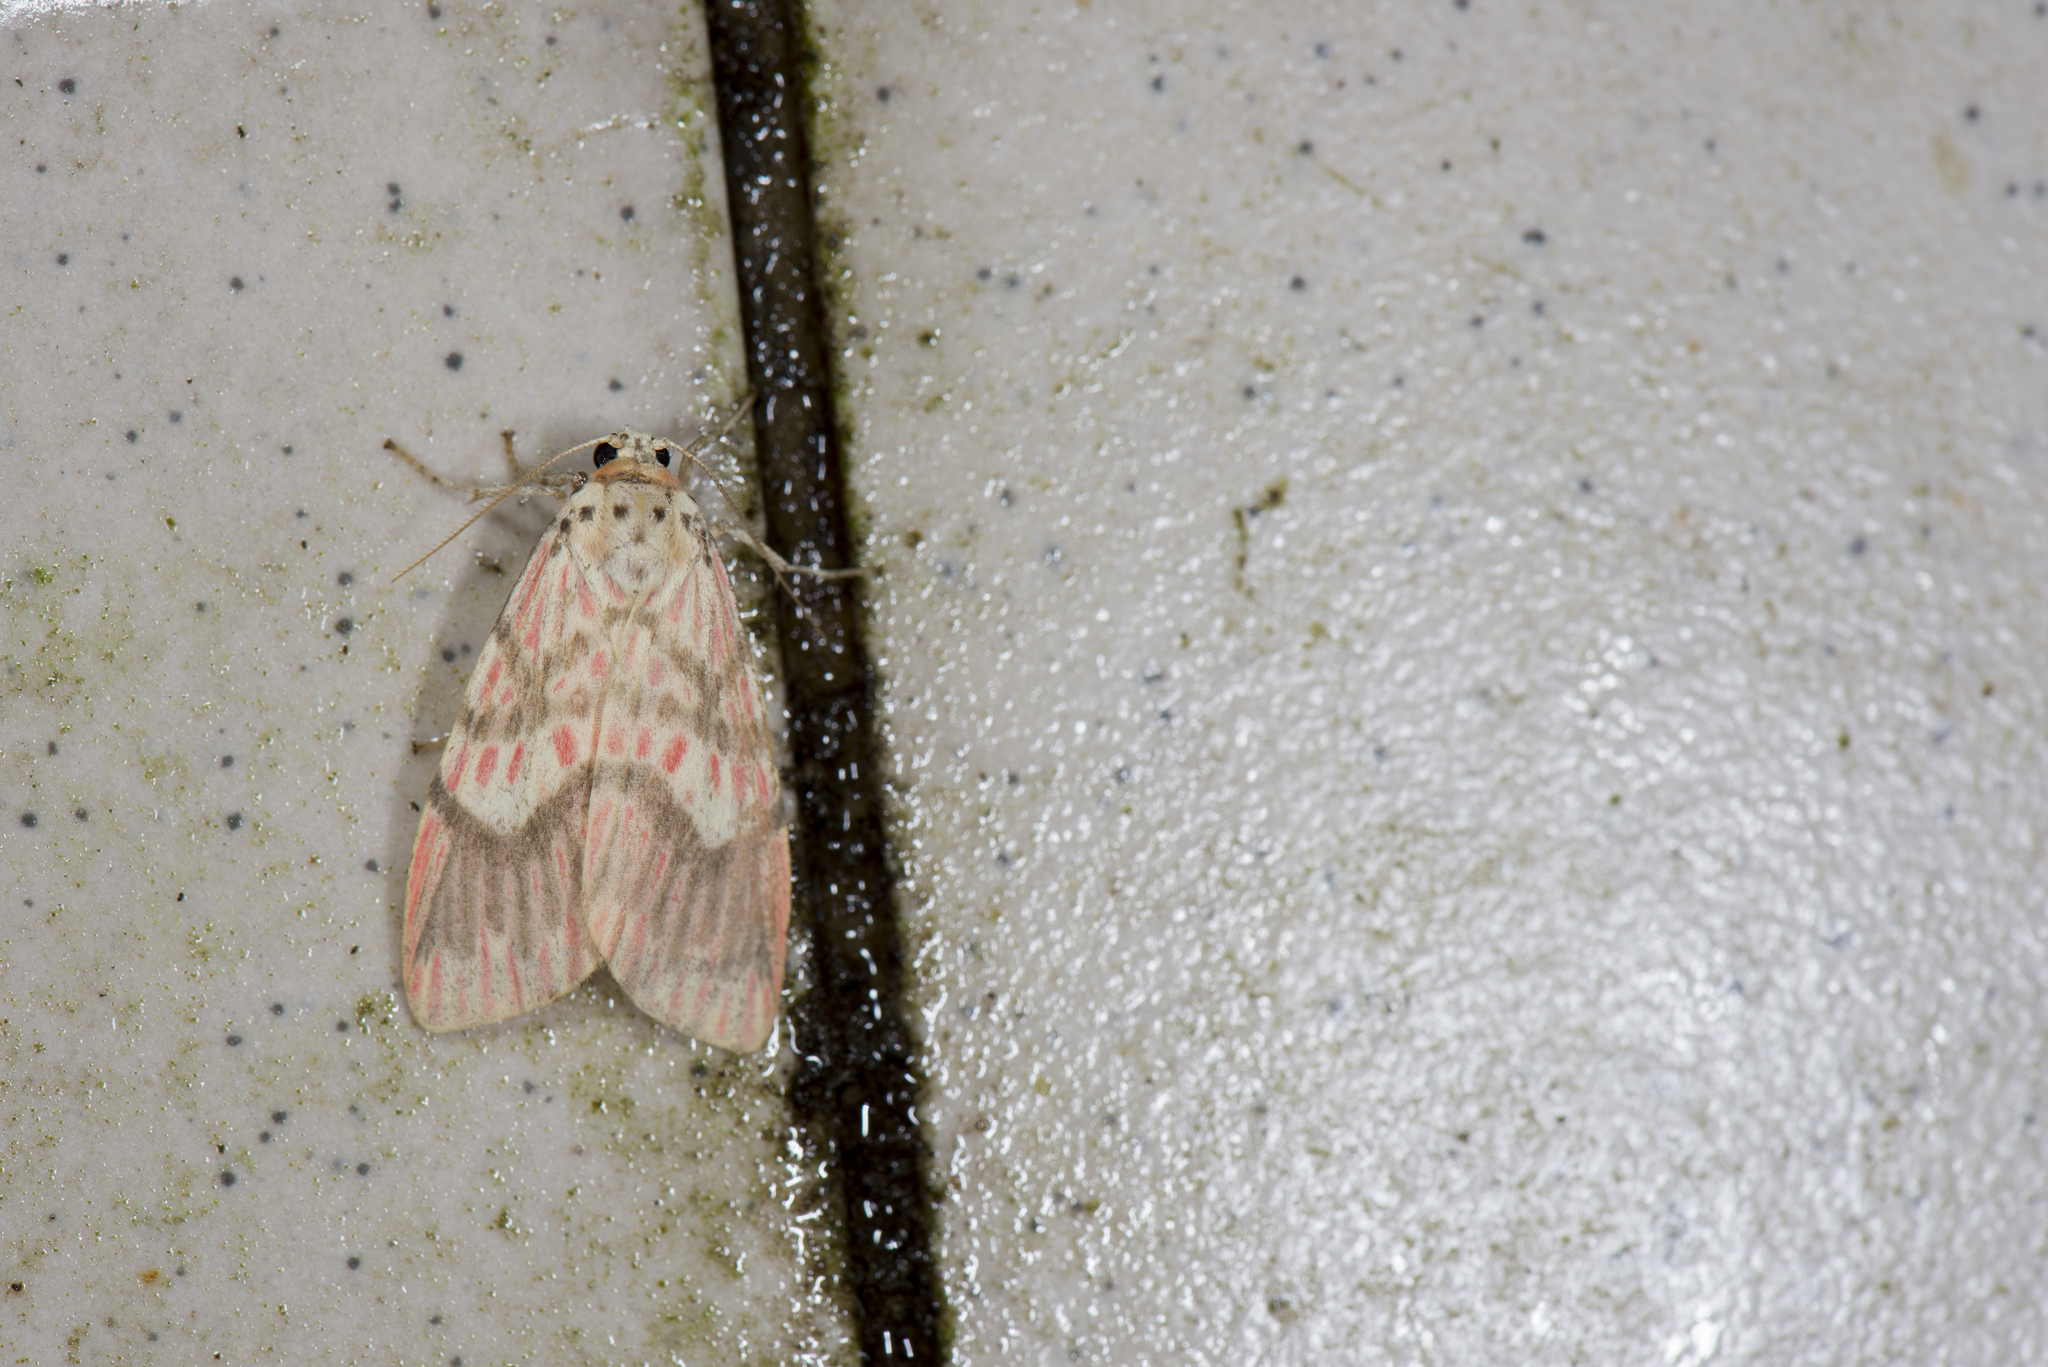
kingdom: Animalia
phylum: Arthropoda
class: Insecta
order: Lepidoptera
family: Erebidae
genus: Barsine
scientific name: Barsine fuscozonata
